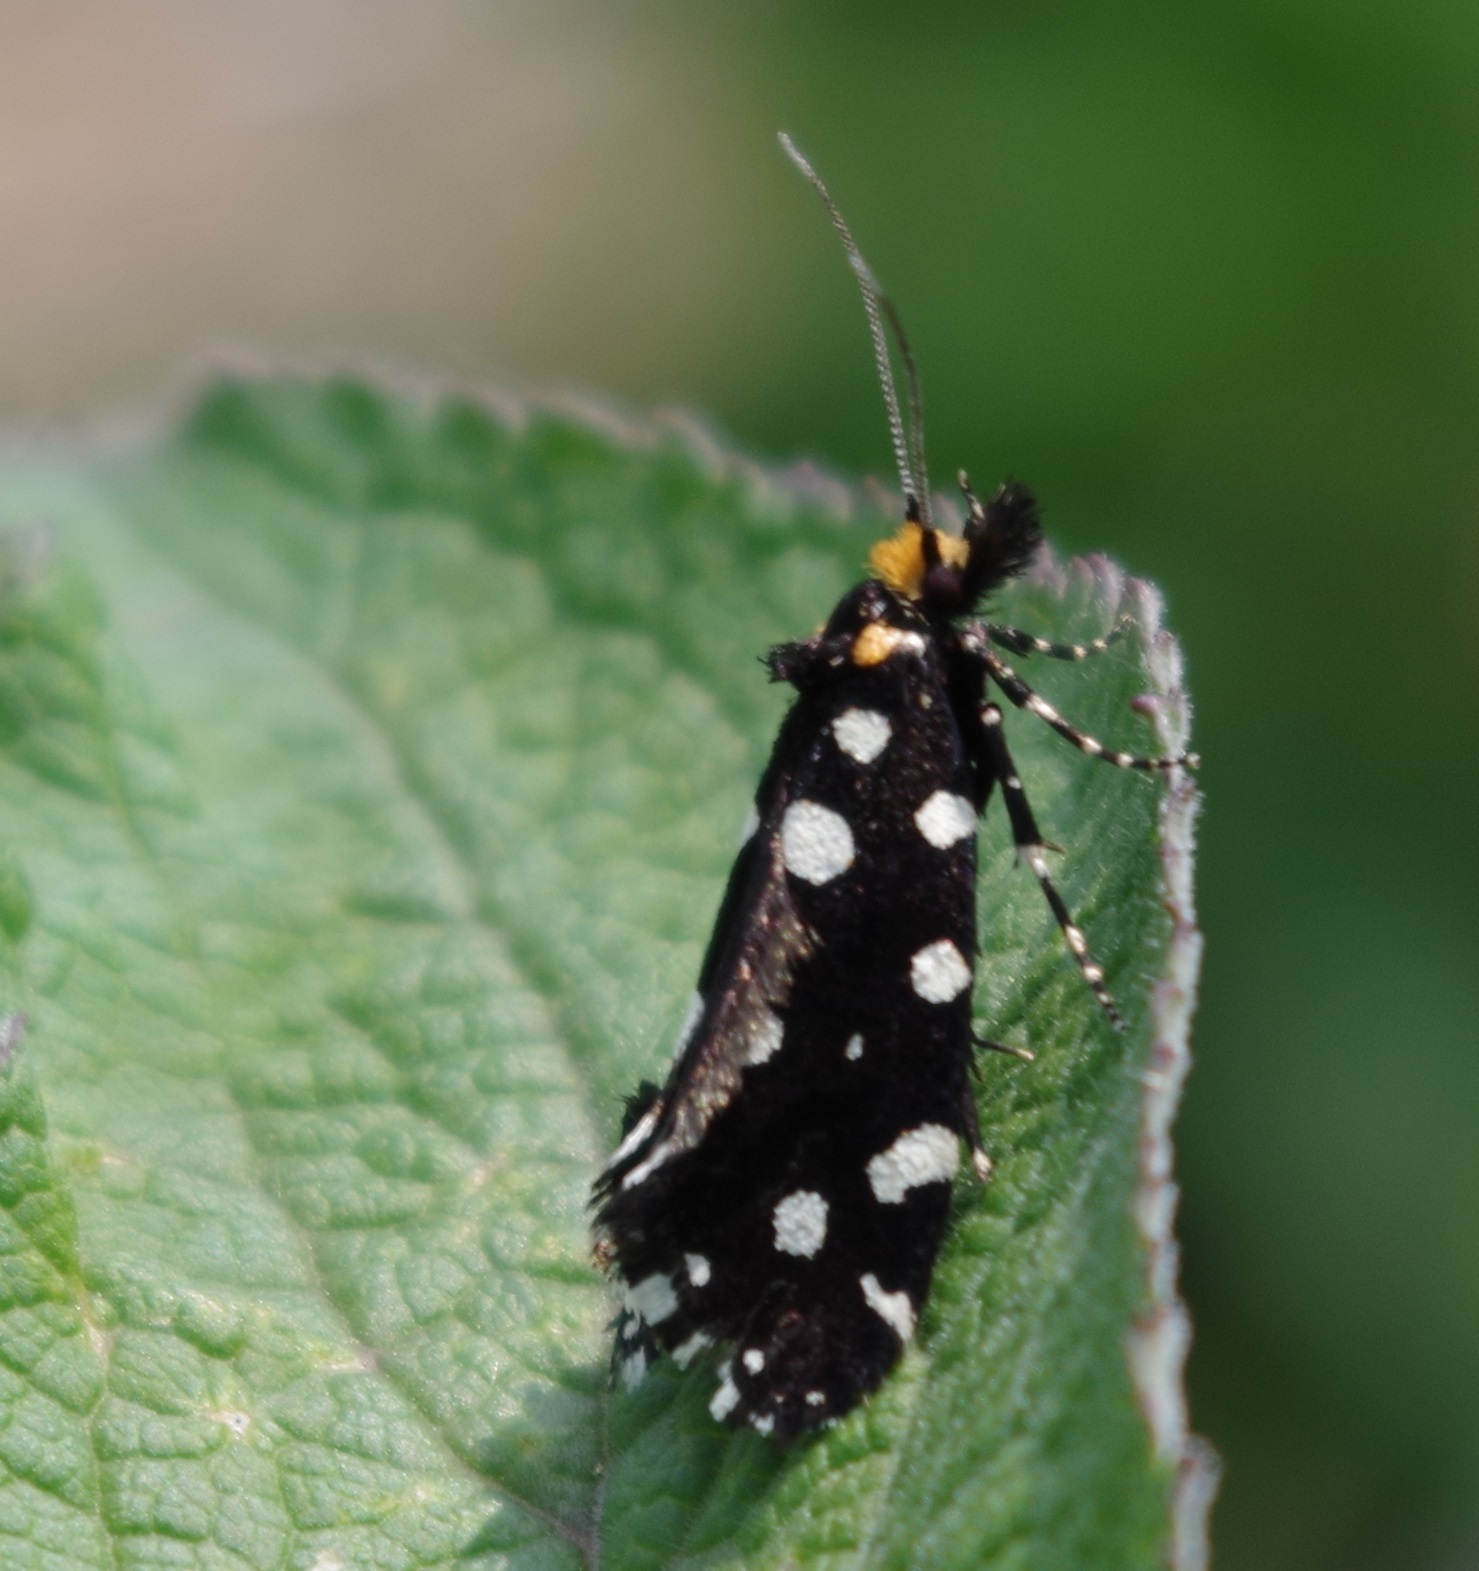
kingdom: Animalia
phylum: Arthropoda
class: Insecta
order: Lepidoptera
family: Tineidae
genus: Euplocamus
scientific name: Euplocamus anthracinalis
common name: Black clothes
